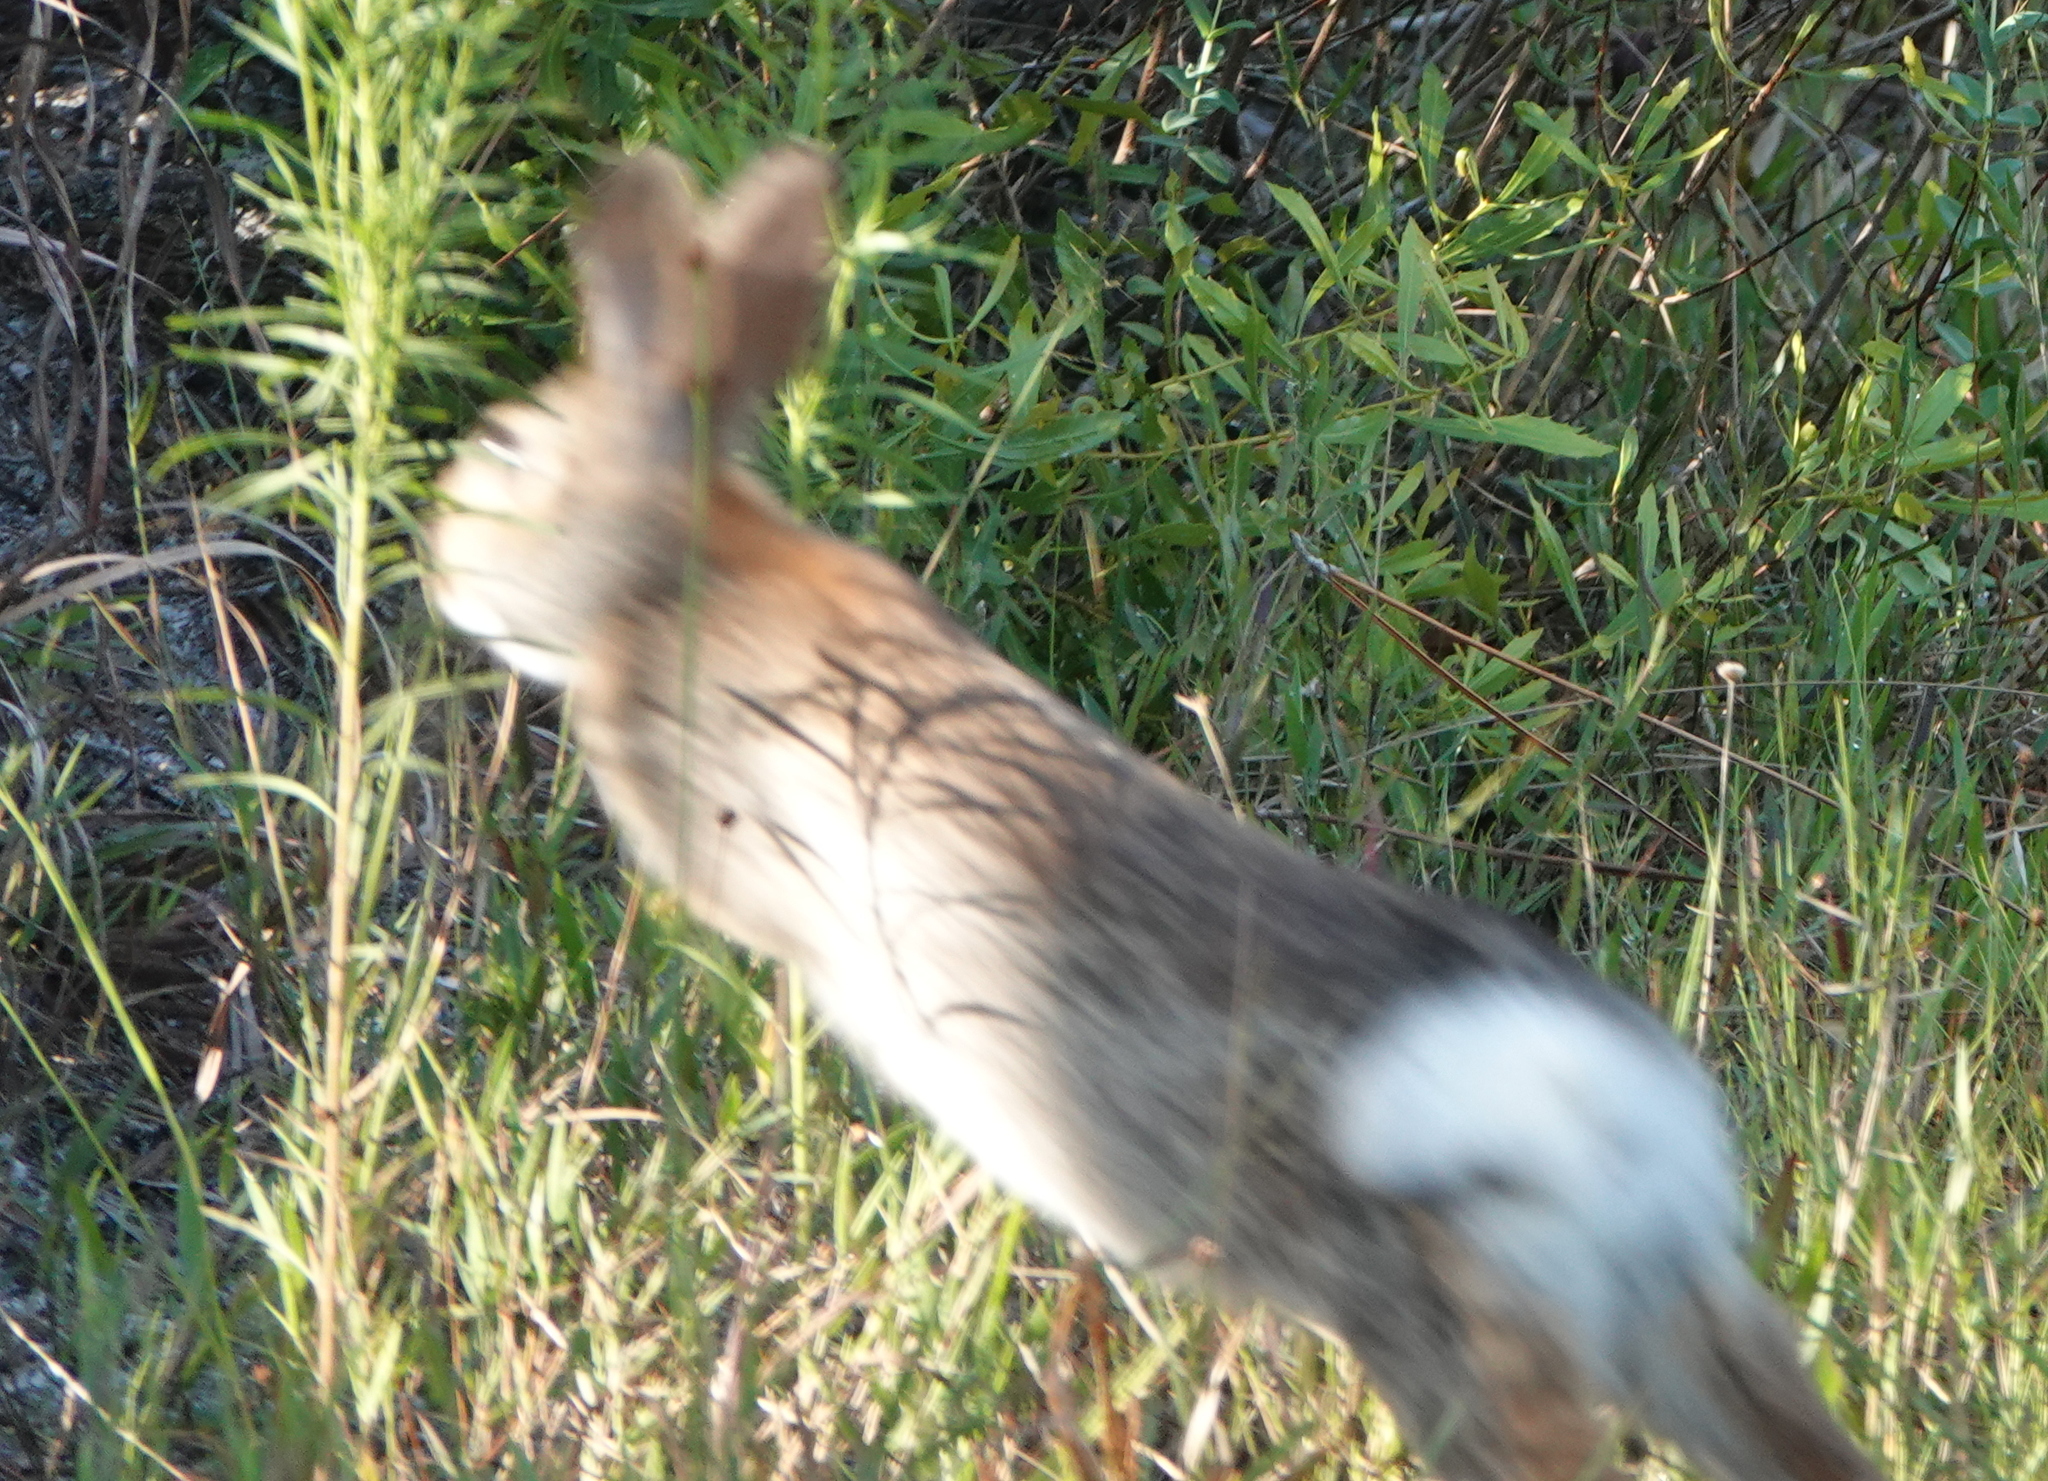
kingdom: Animalia
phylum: Chordata
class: Mammalia
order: Lagomorpha
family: Leporidae
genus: Sylvilagus
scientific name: Sylvilagus floridanus
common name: Eastern cottontail
